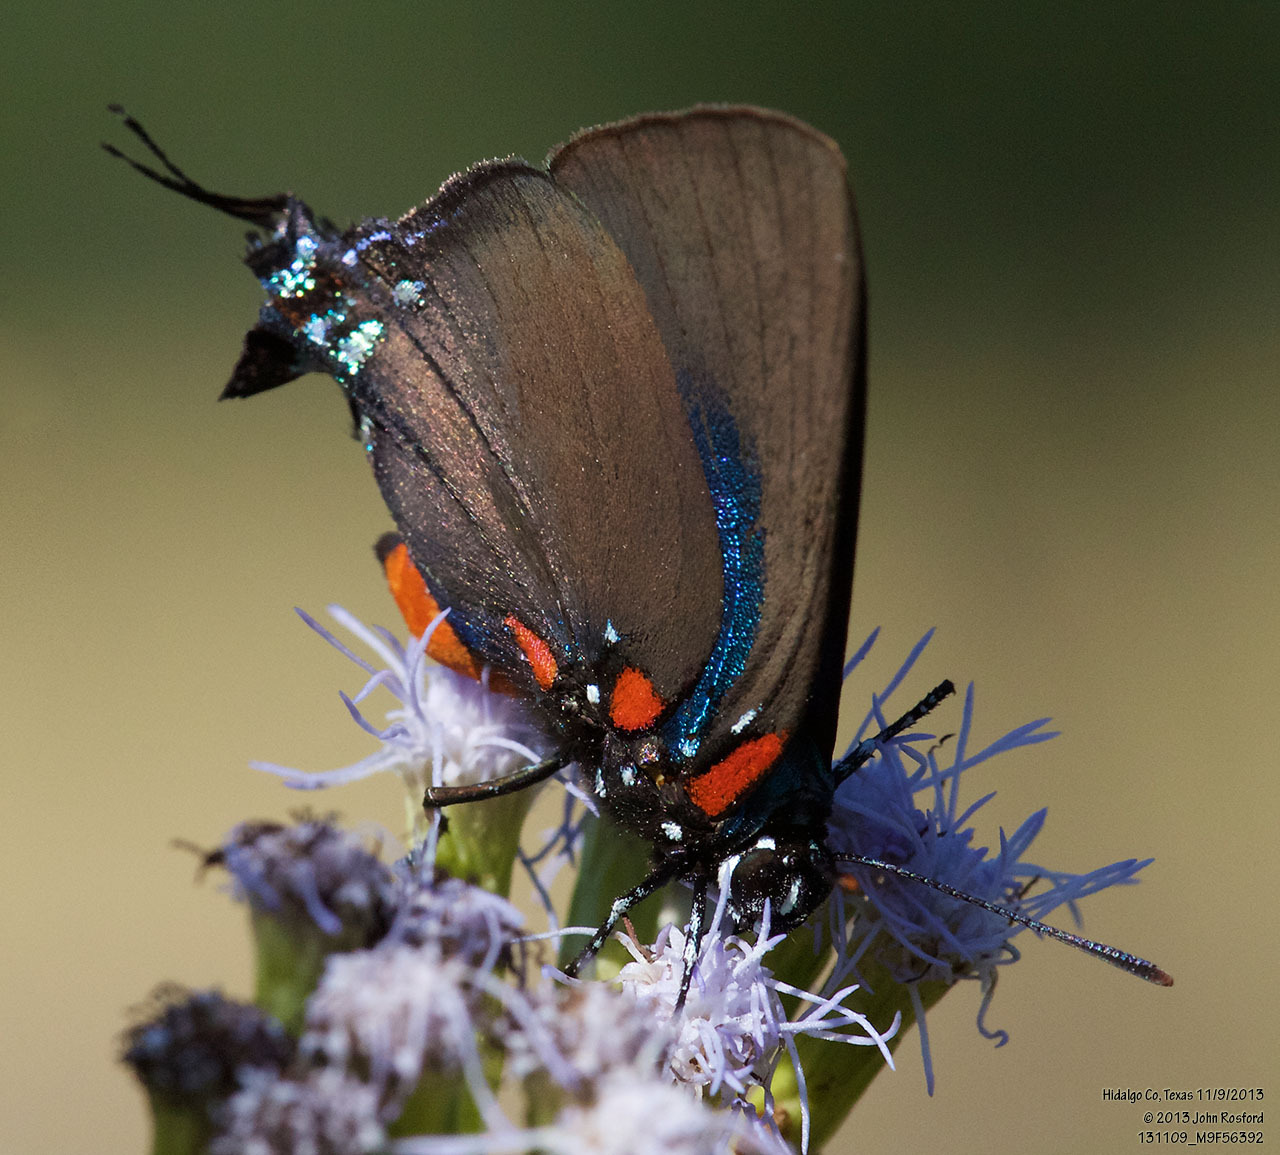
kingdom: Animalia
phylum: Arthropoda
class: Insecta
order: Lepidoptera
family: Lycaenidae
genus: Atlides
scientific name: Atlides halesus
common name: Great purple hairstreak
